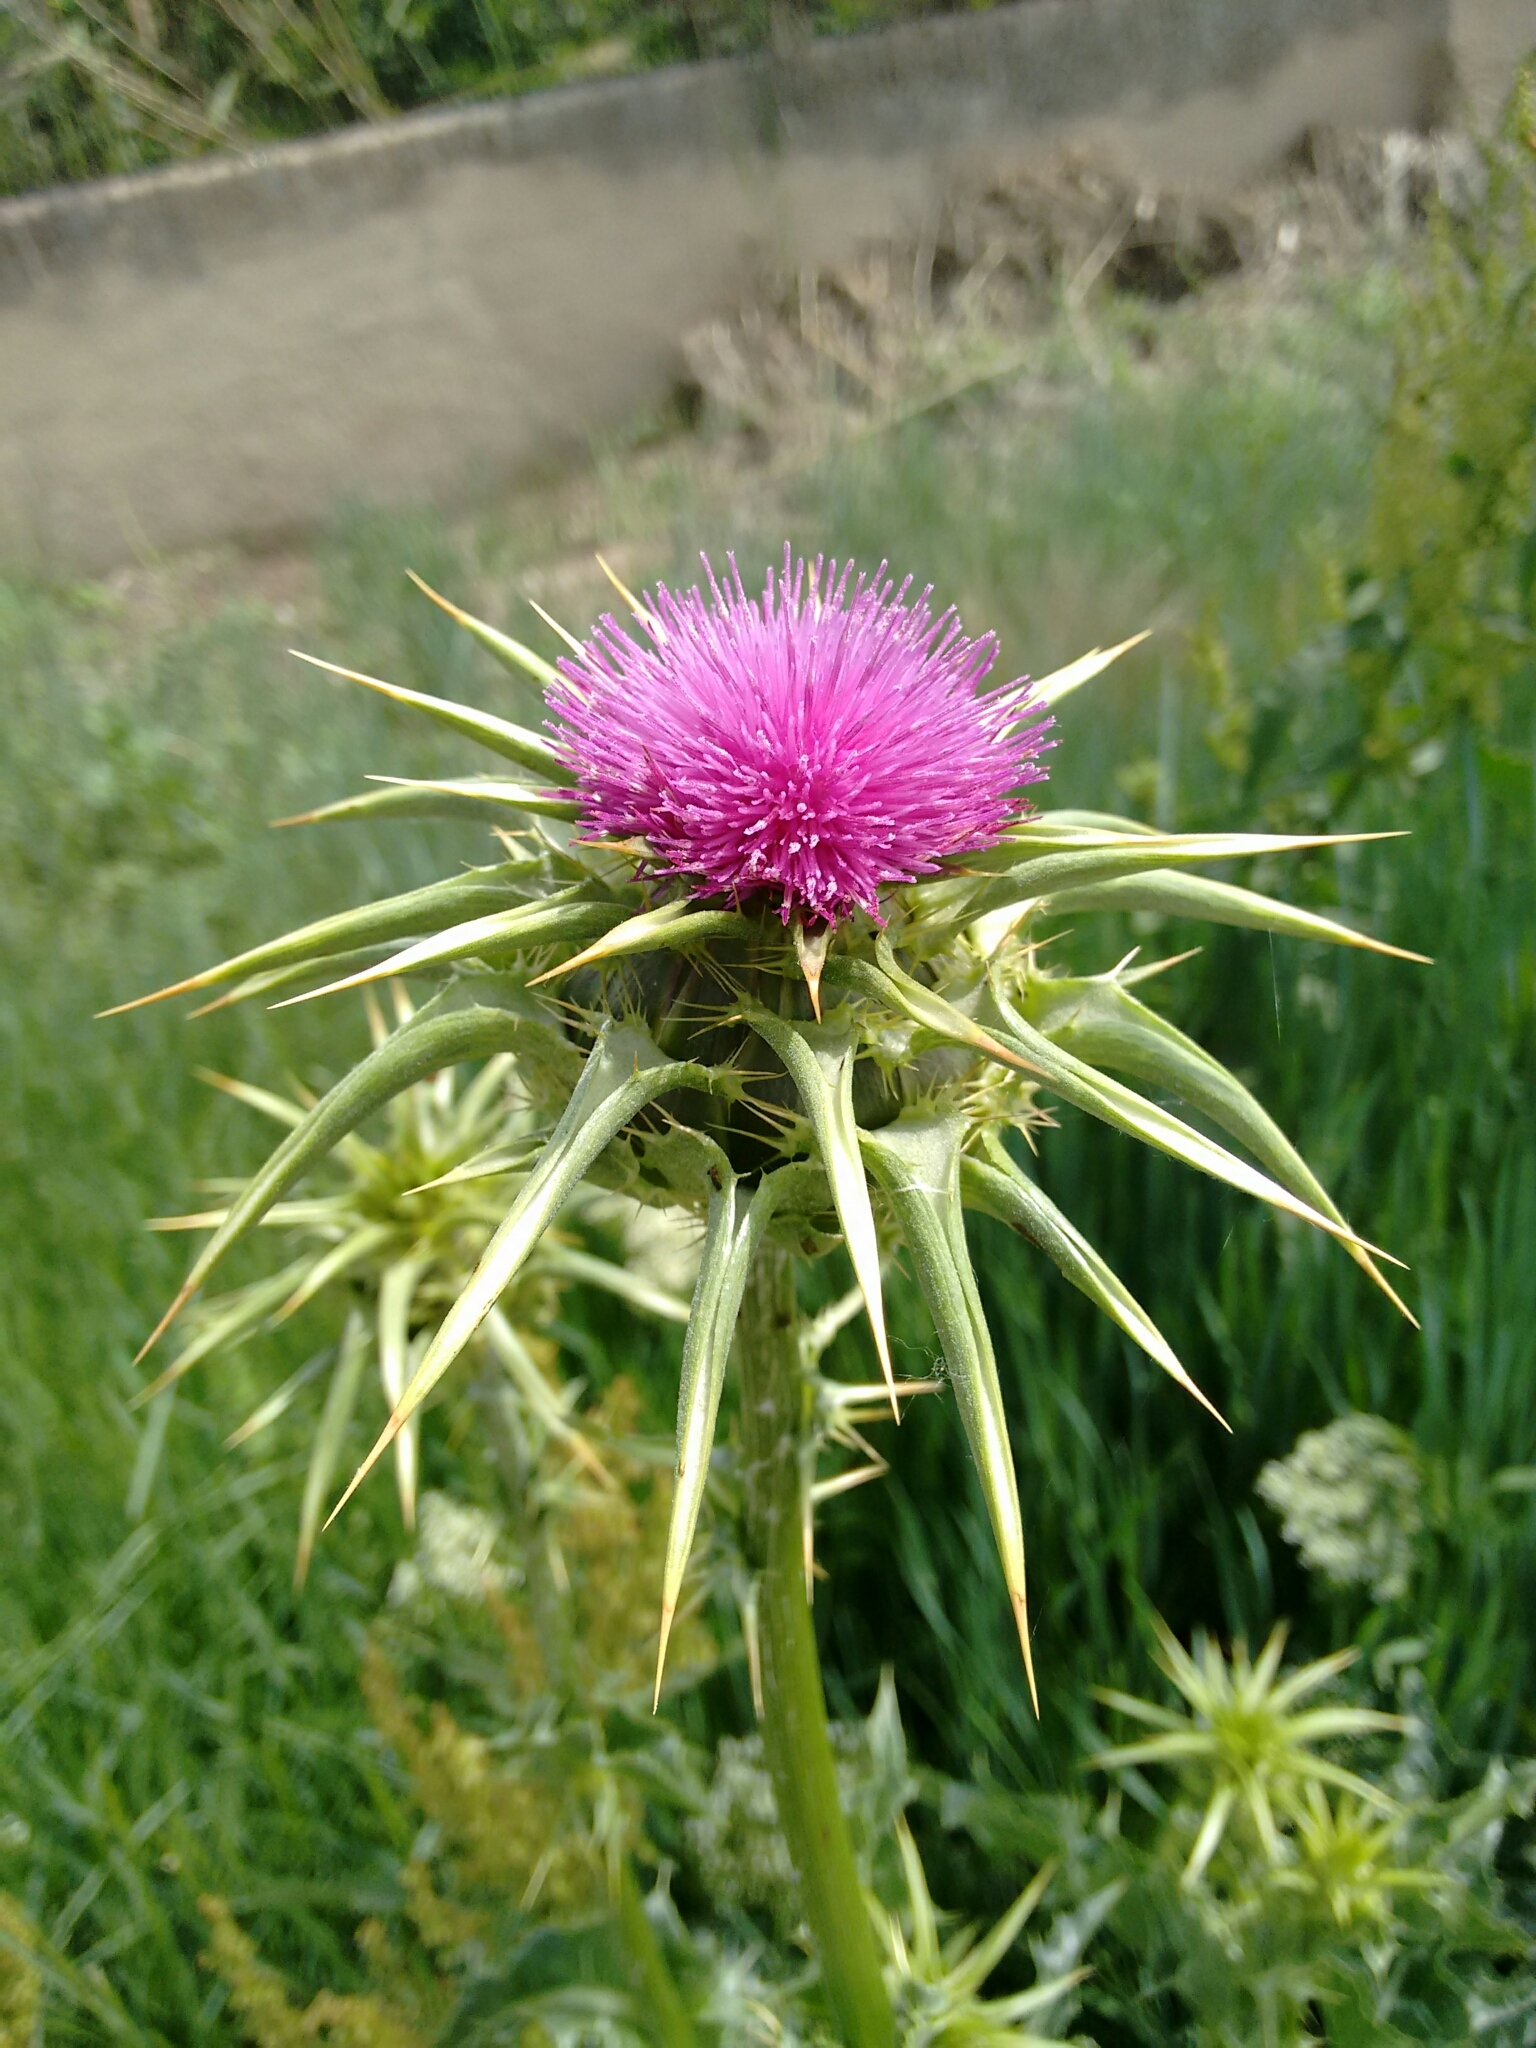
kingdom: Plantae
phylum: Tracheophyta
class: Magnoliopsida
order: Asterales
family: Asteraceae
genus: Silybum
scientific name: Silybum marianum
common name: Milk thistle
